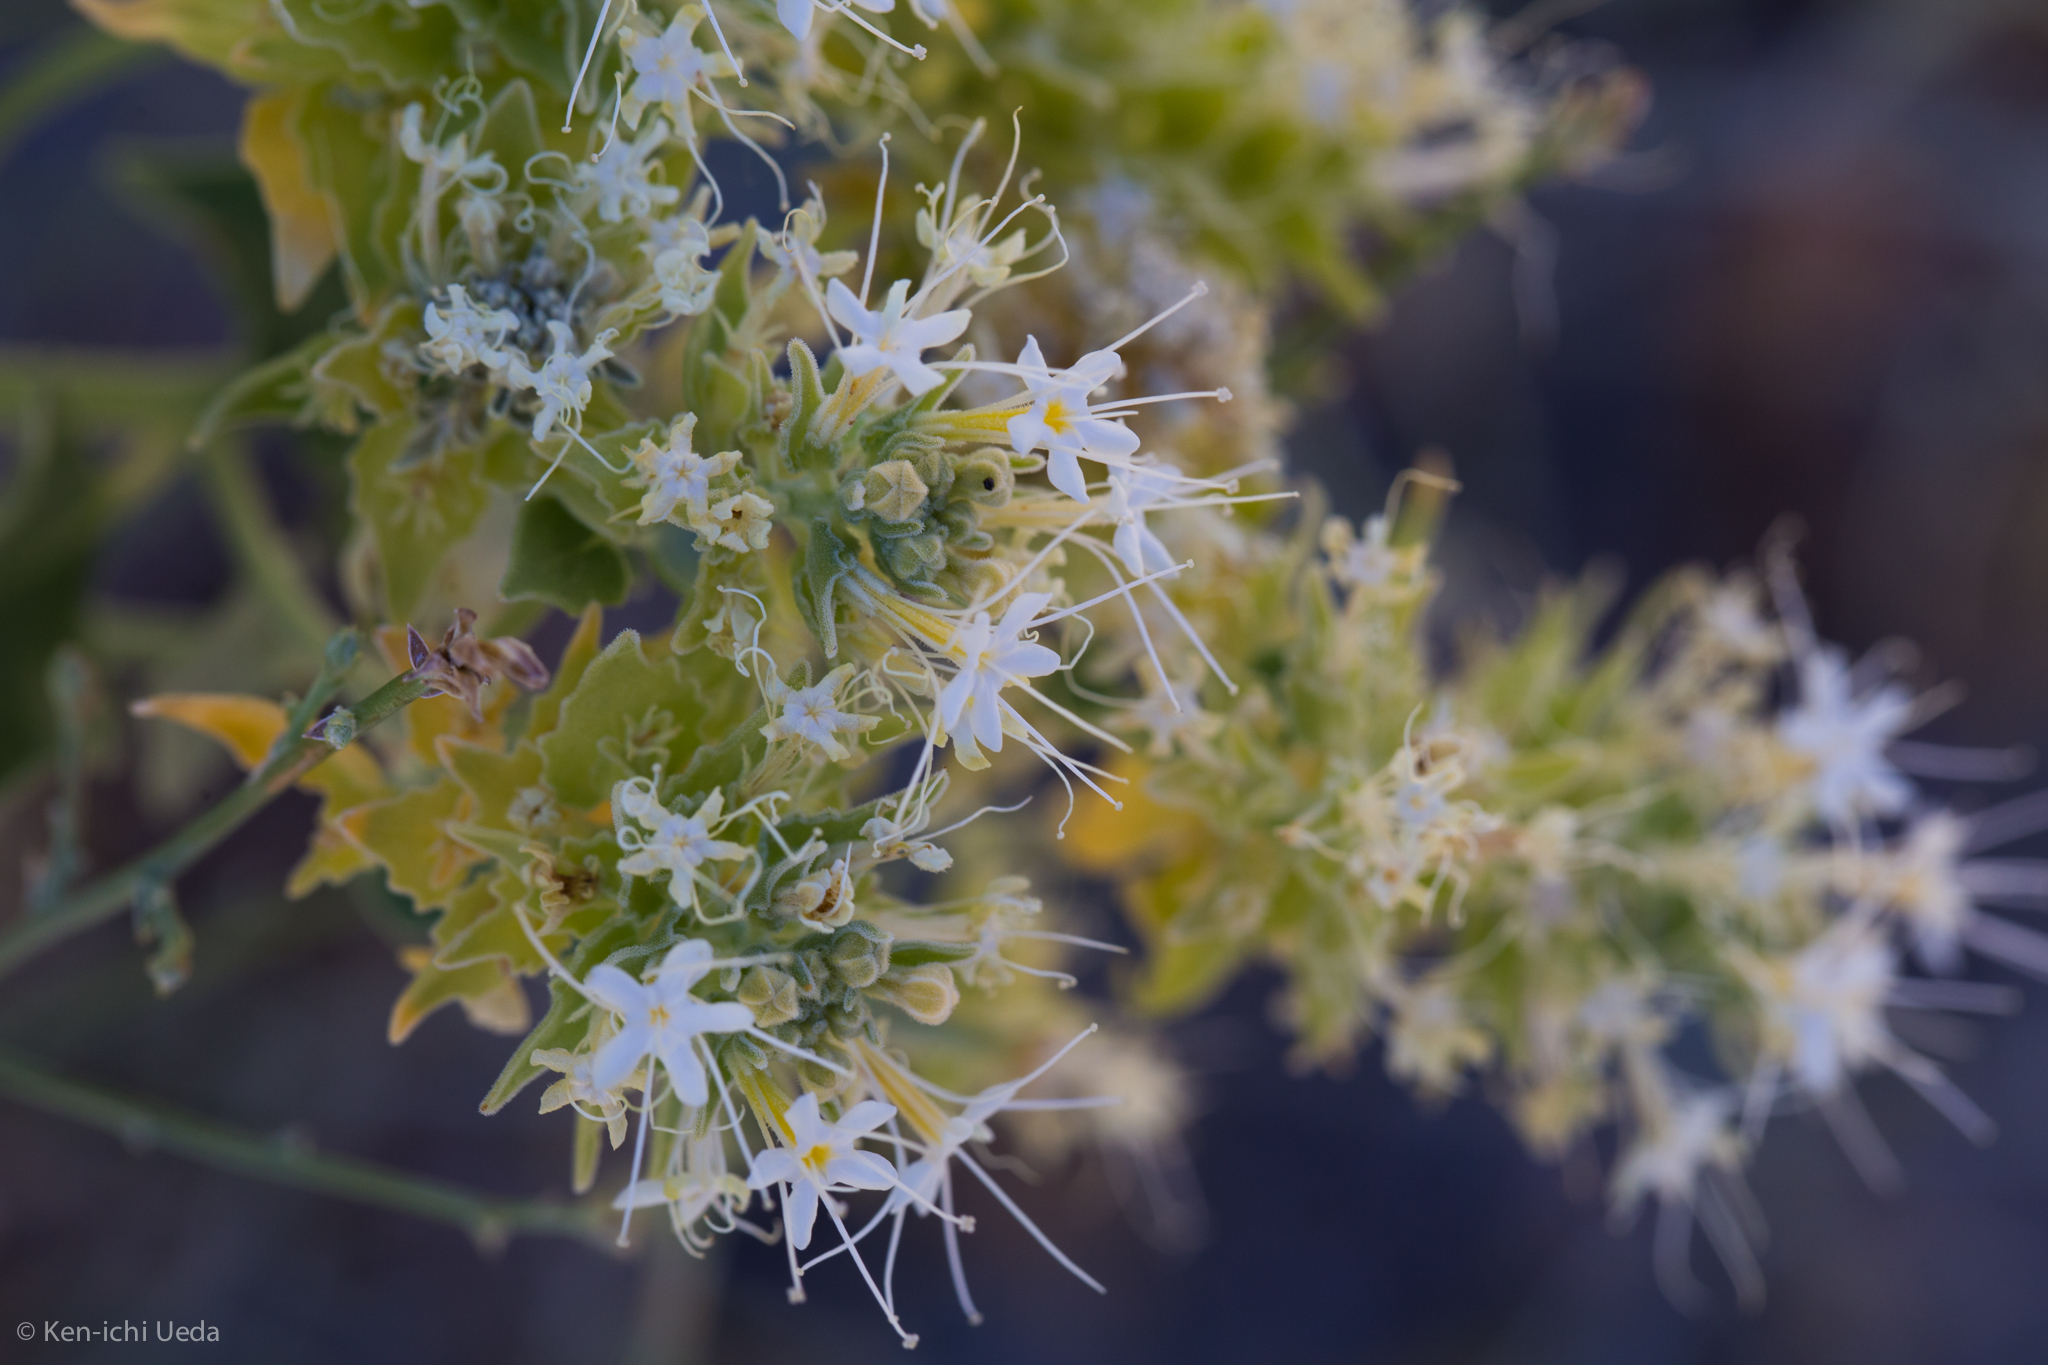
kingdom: Plantae
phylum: Tracheophyta
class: Magnoliopsida
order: Cornales
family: Loasaceae
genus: Petalonyx
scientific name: Petalonyx nitidus
